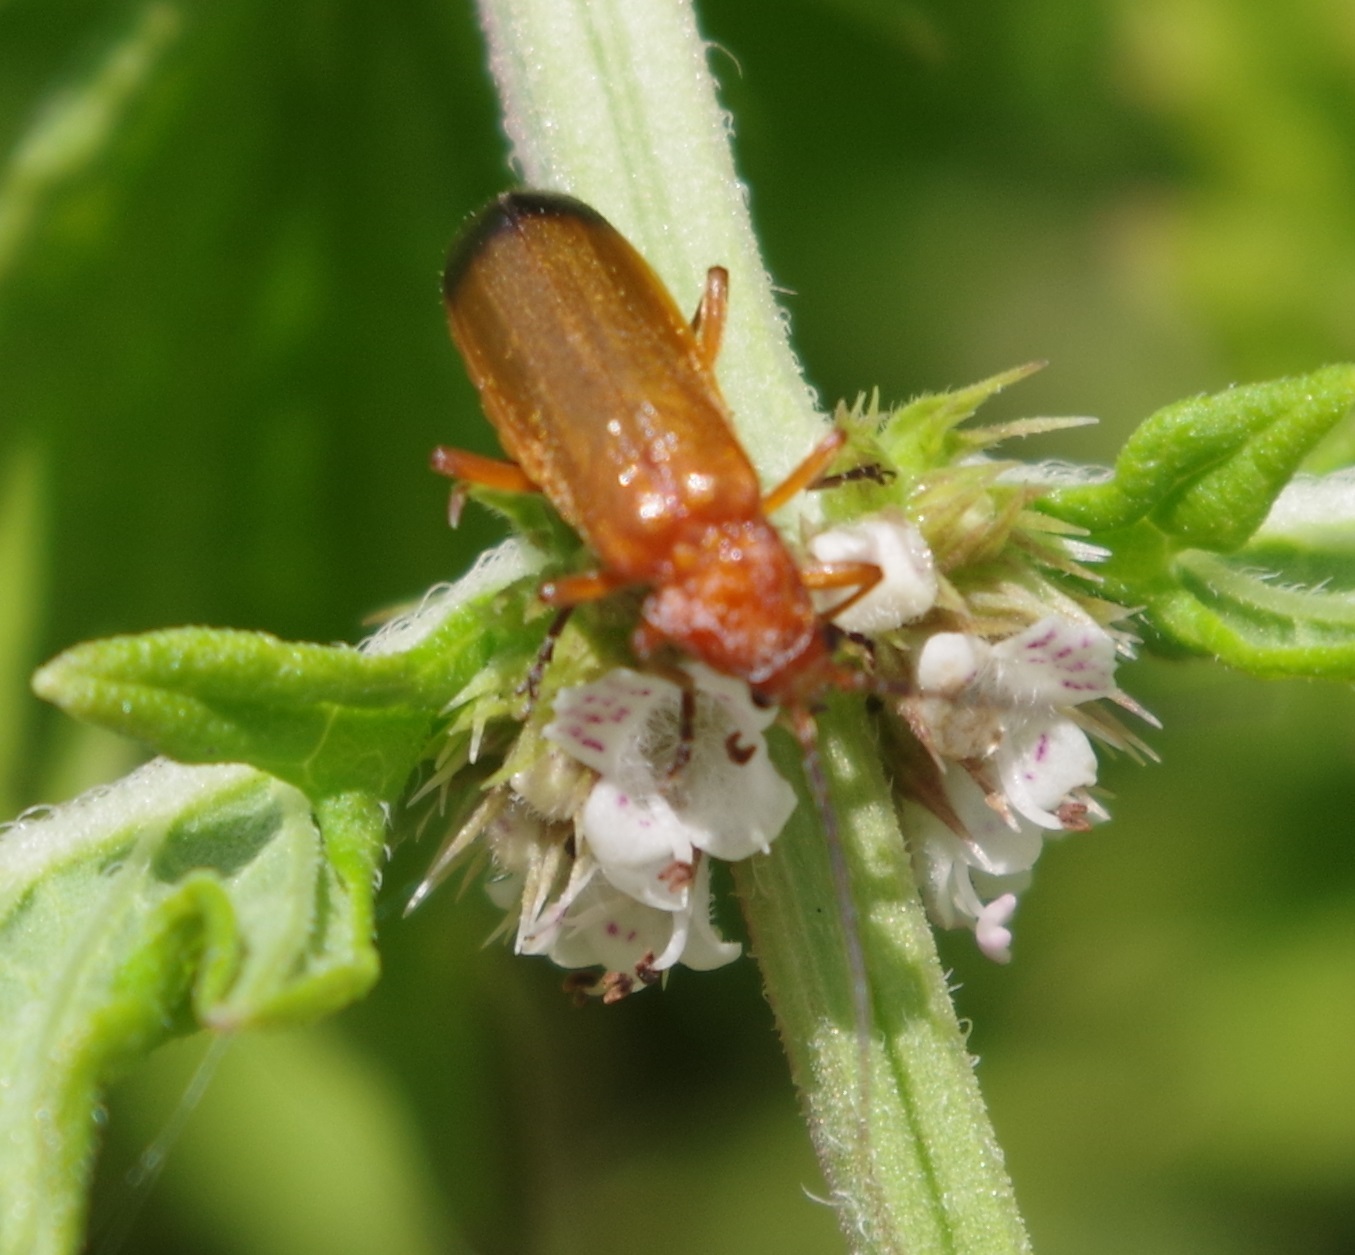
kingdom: Animalia
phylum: Arthropoda
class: Insecta
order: Coleoptera
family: Cantharidae
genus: Rhagonycha
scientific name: Rhagonycha fulva
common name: Common red soldier beetle
